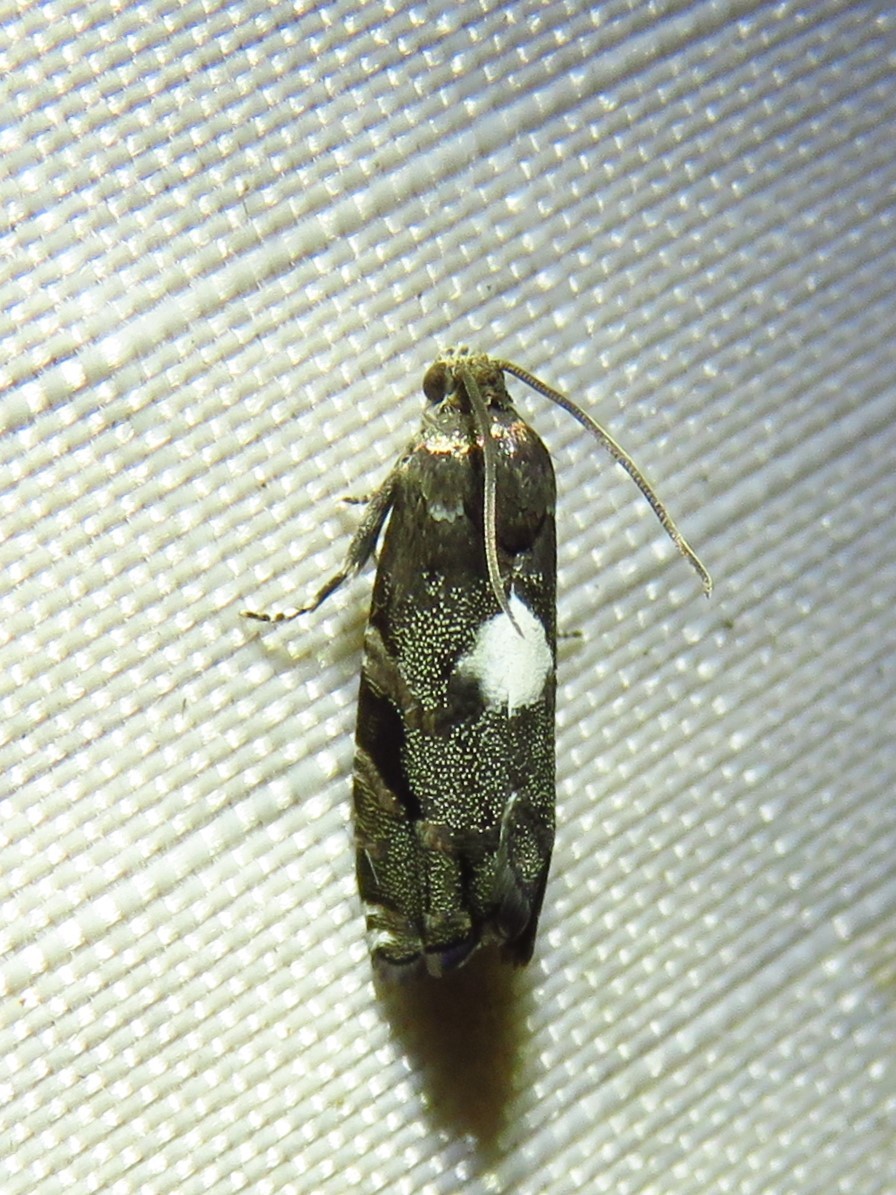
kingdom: Animalia
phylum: Arthropoda
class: Insecta
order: Lepidoptera
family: Tortricidae
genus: Cydia
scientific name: Cydia albimaculana
